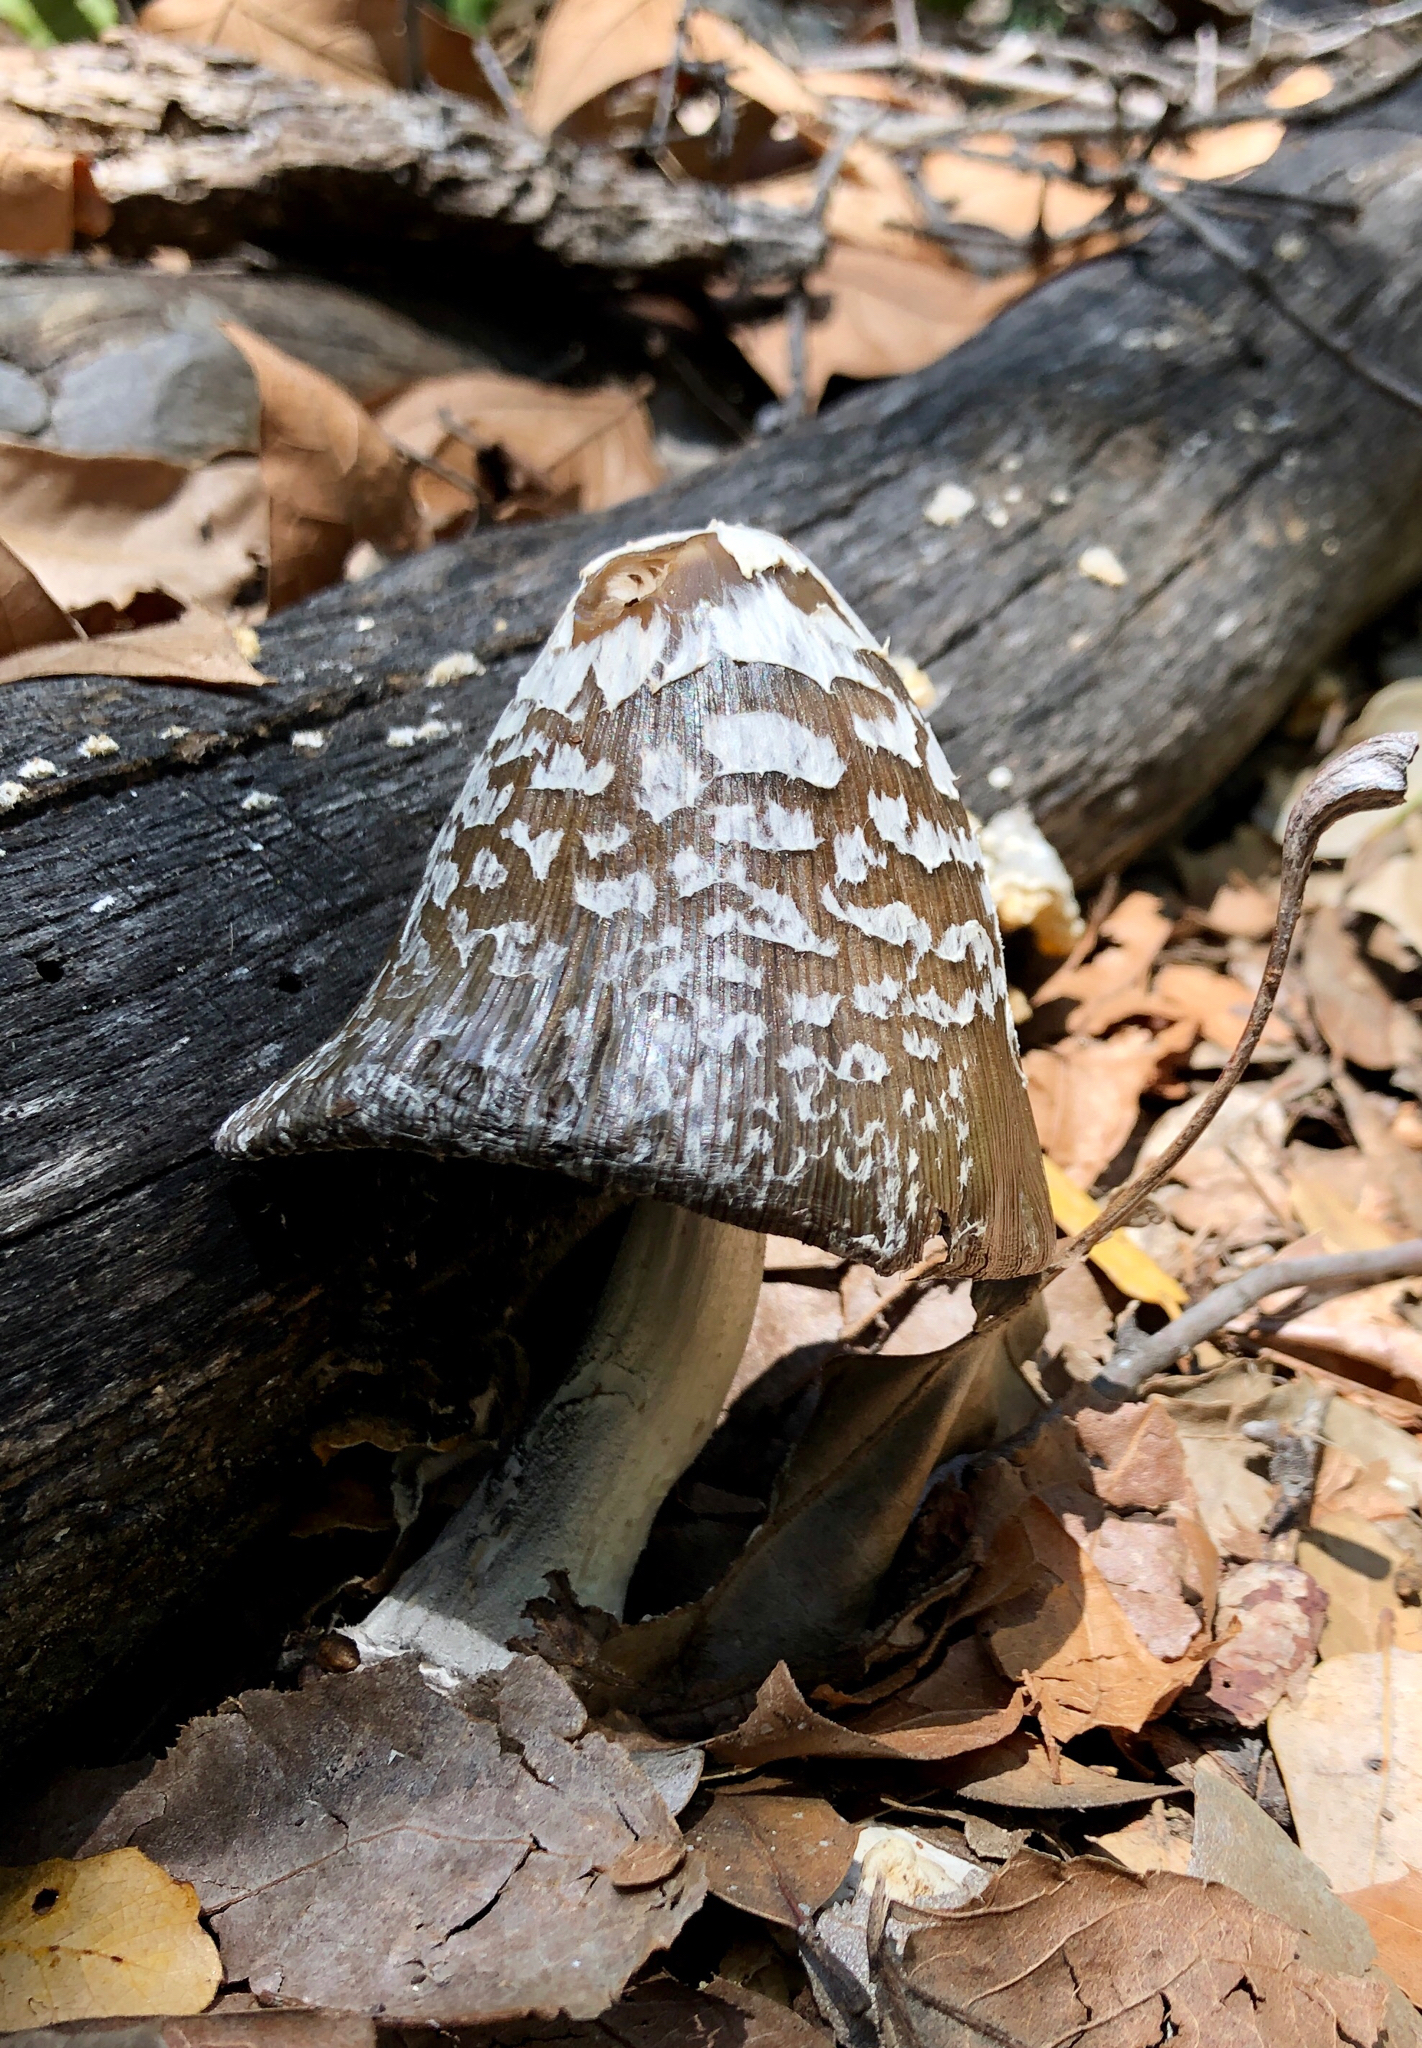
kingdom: Fungi
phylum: Basidiomycota
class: Agaricomycetes
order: Agaricales
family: Psathyrellaceae
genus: Coprinopsis
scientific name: Coprinopsis picacea
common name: Magpie inkcap
